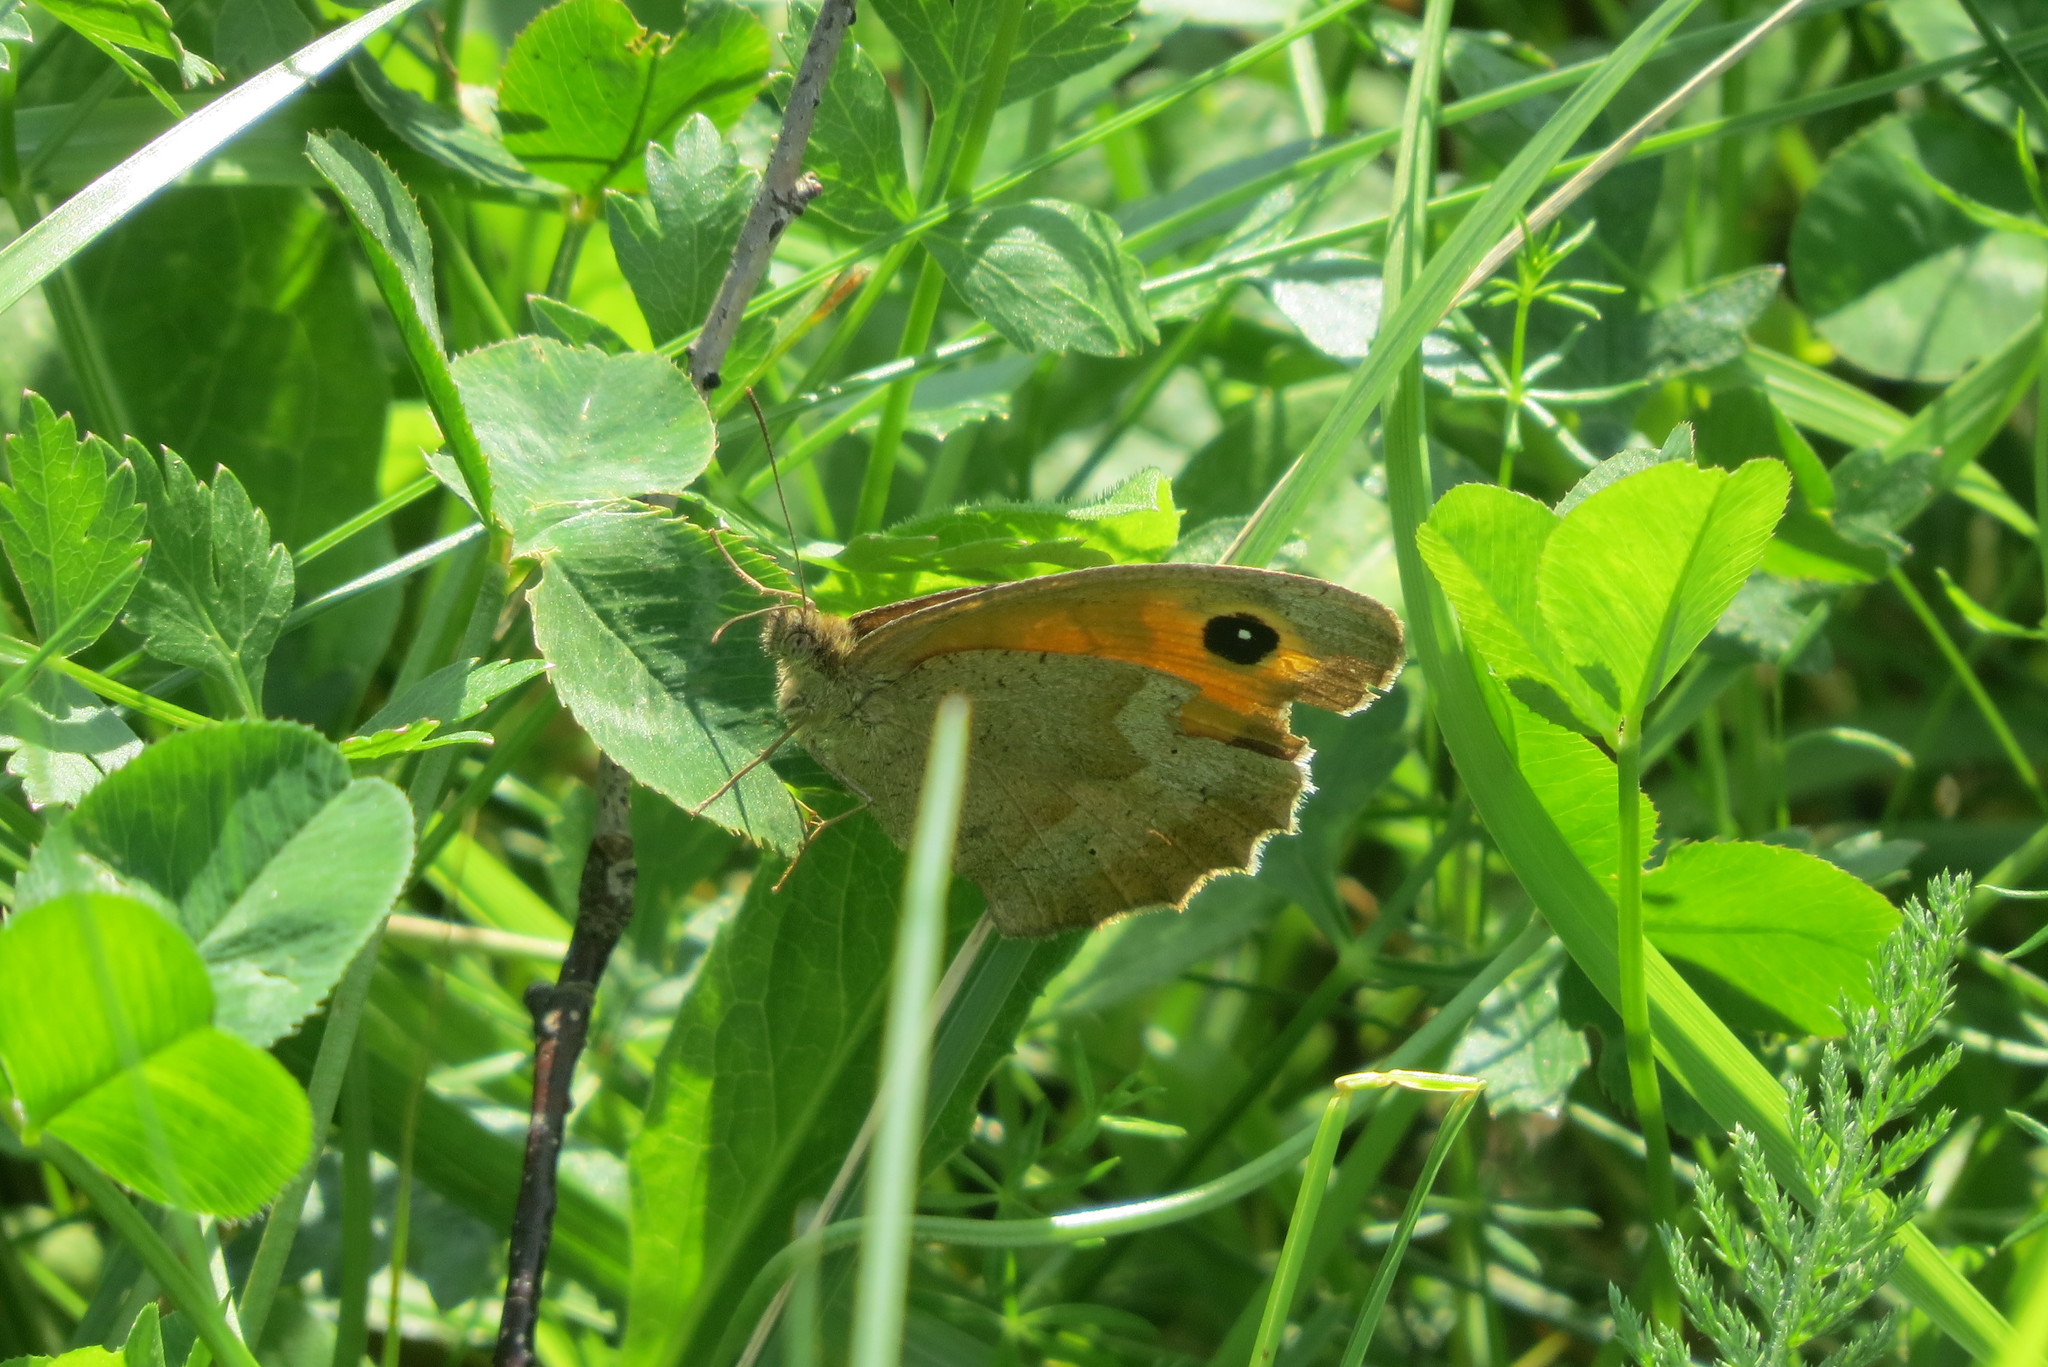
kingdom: Animalia
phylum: Arthropoda
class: Insecta
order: Lepidoptera
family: Nymphalidae
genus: Maniola
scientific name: Maniola jurtina
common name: Meadow brown
